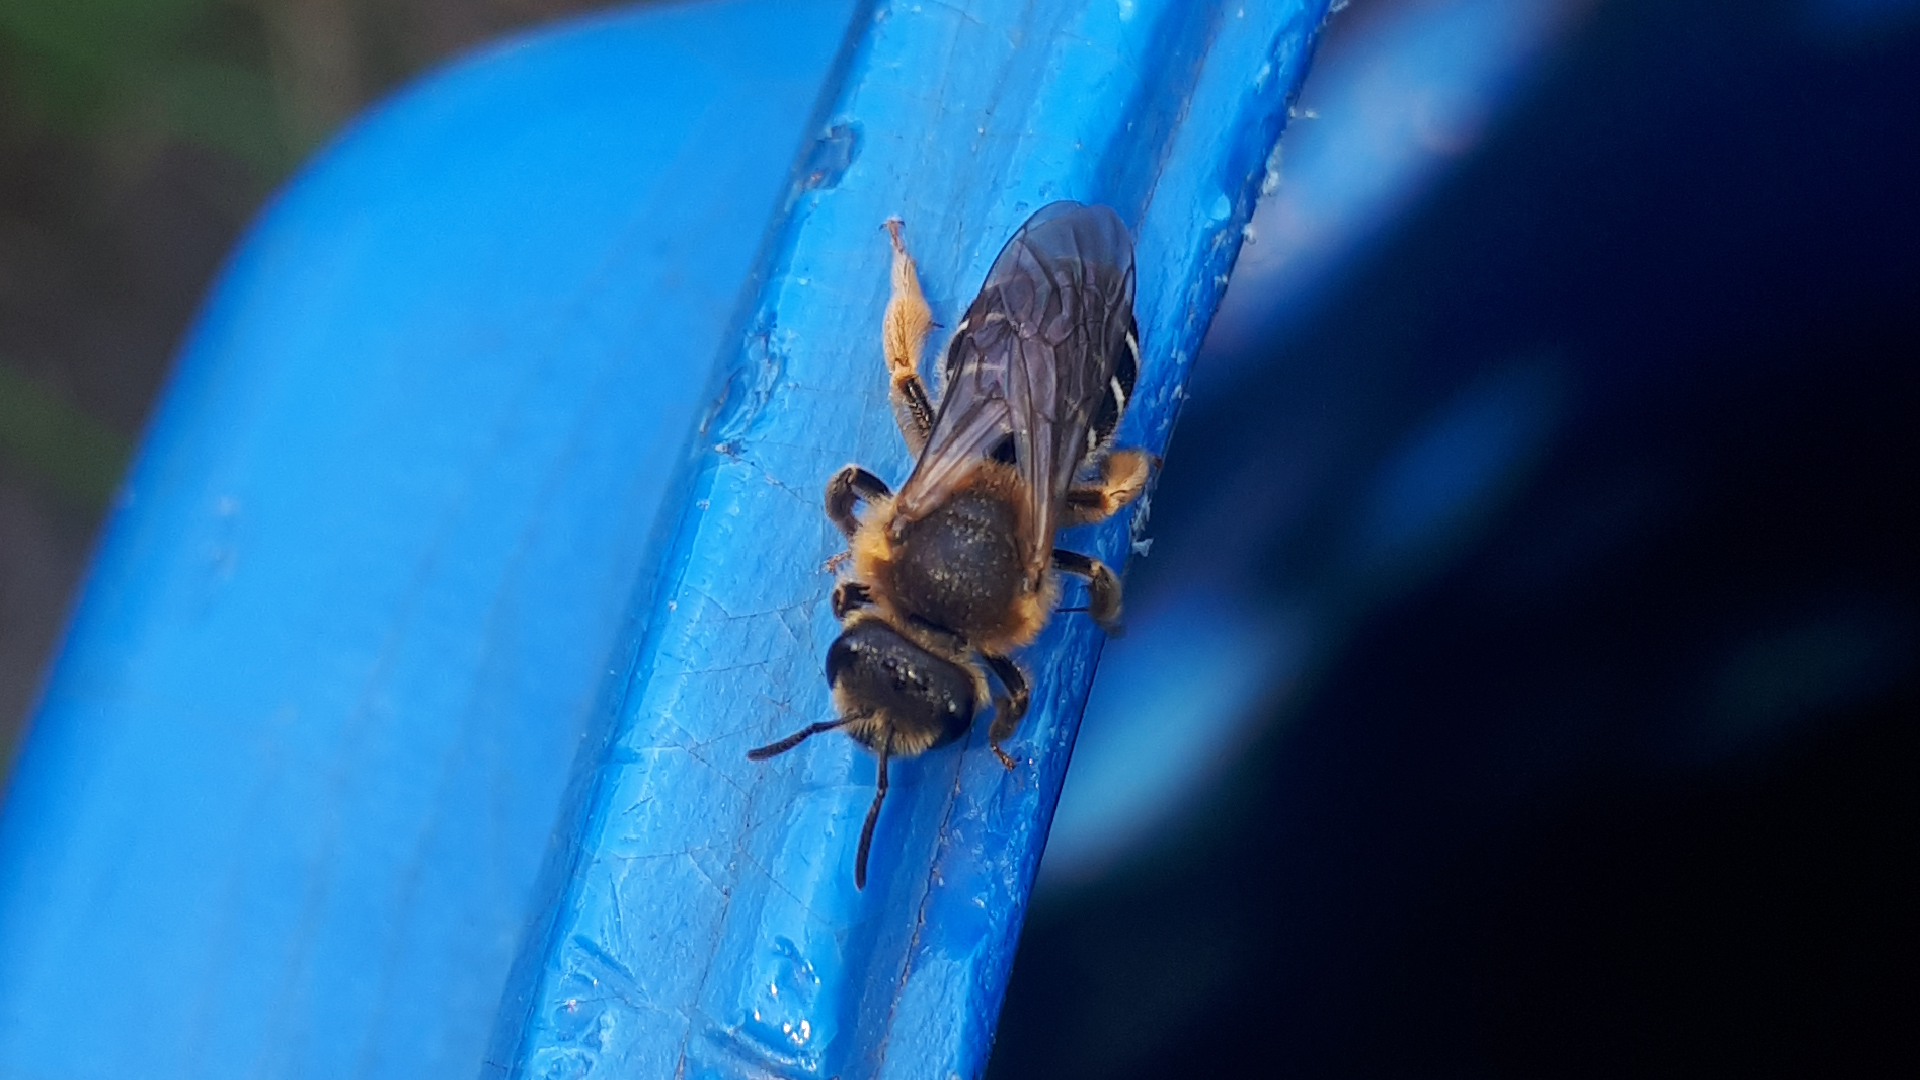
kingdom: Animalia
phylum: Arthropoda
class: Insecta
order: Hymenoptera
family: Halictidae
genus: Halictus
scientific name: Halictus rubicundus
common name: Orange-legged furrow bee
